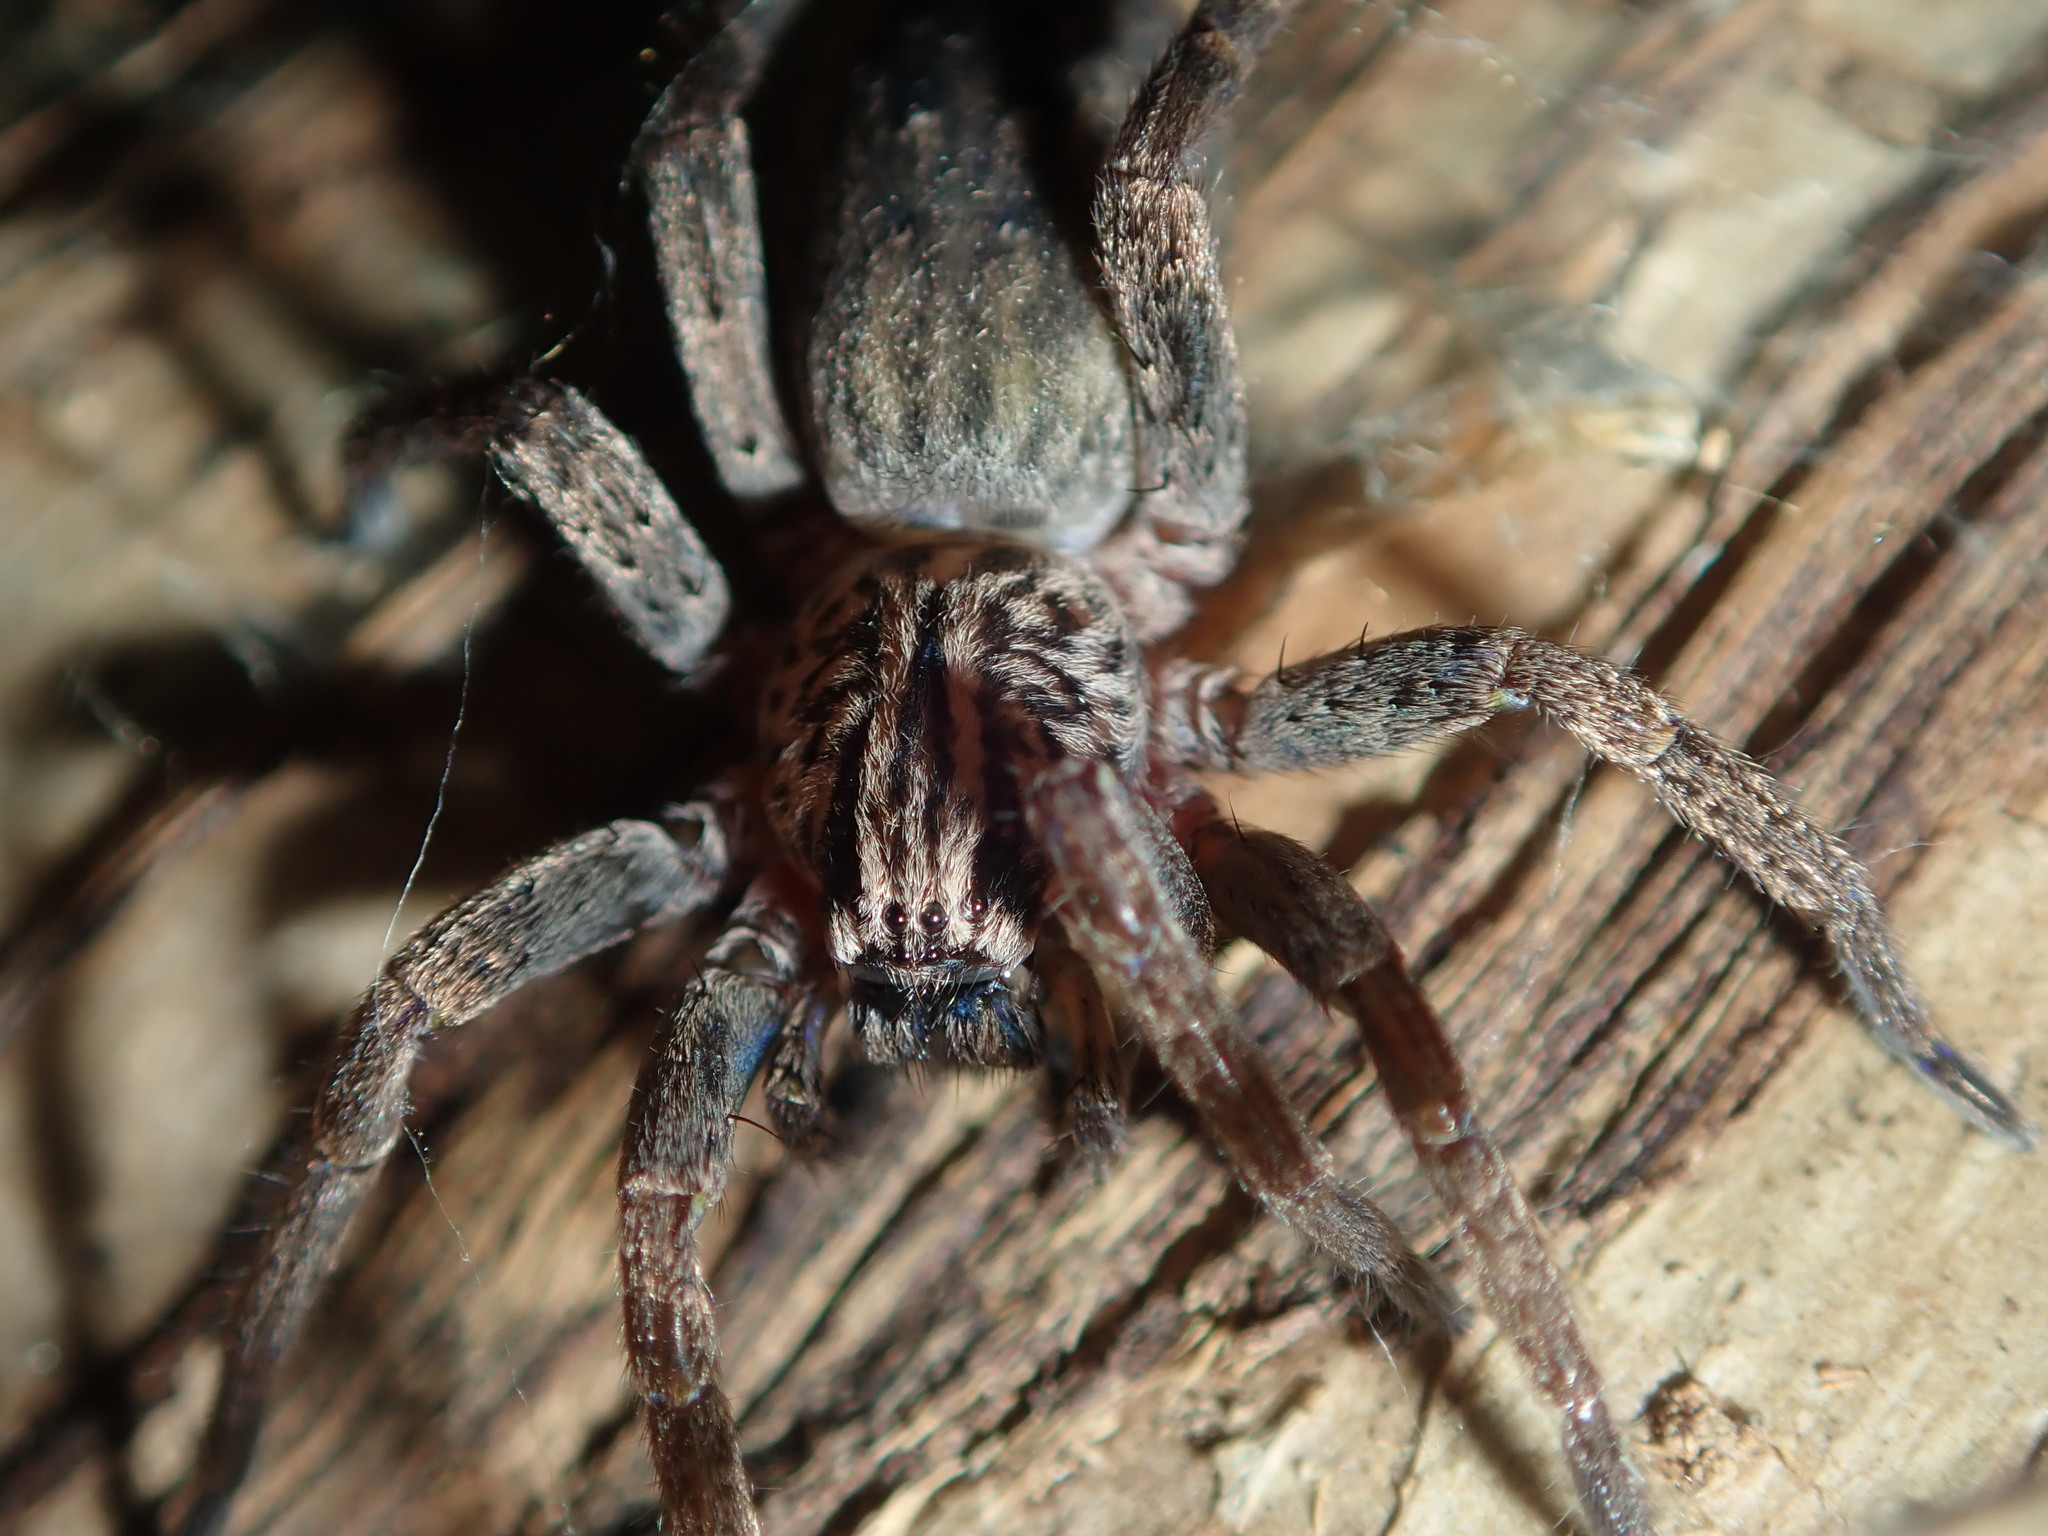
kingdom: Animalia
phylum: Arthropoda
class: Arachnida
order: Araneae
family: Miturgidae
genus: Mituliodon
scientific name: Mituliodon tarantulinus
